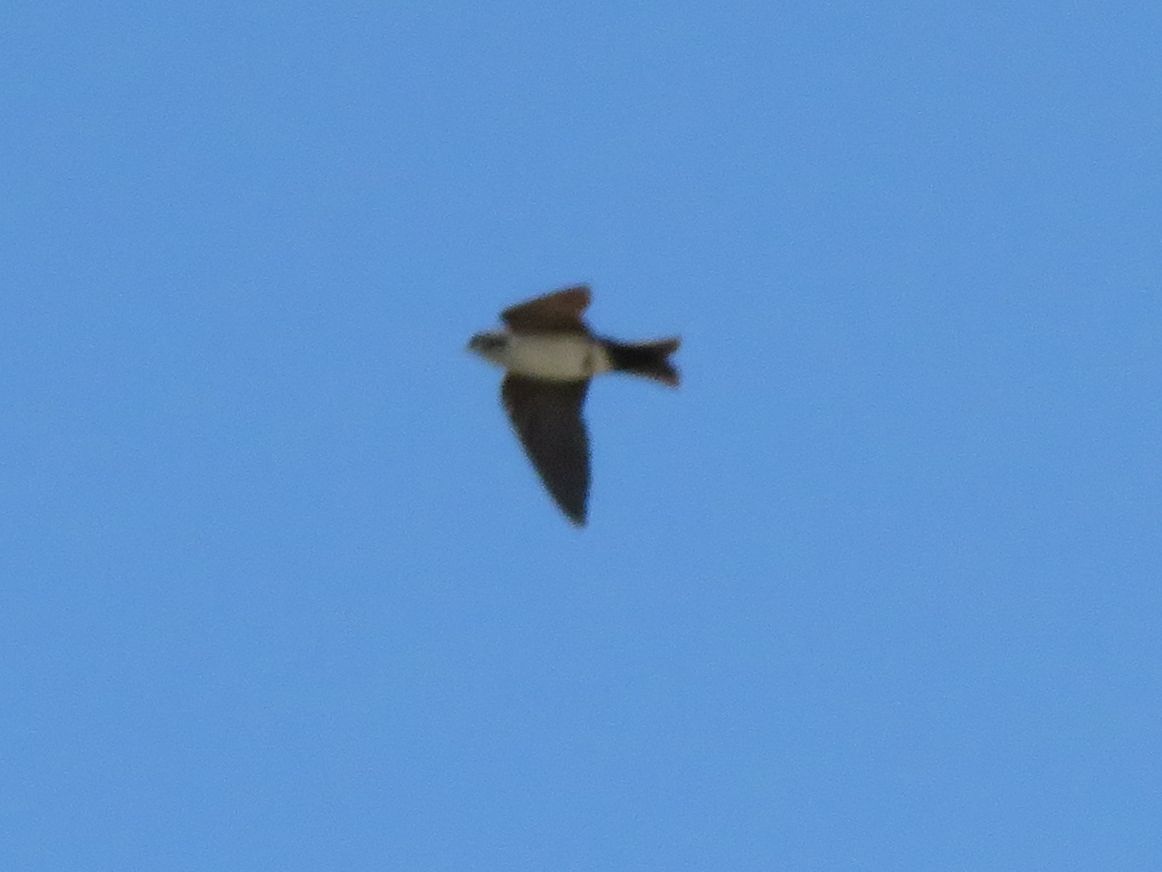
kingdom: Animalia
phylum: Chordata
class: Aves
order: Passeriformes
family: Hirundinidae
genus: Notiochelidon
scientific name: Notiochelidon cyanoleuca
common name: Blue-and-white swallow
